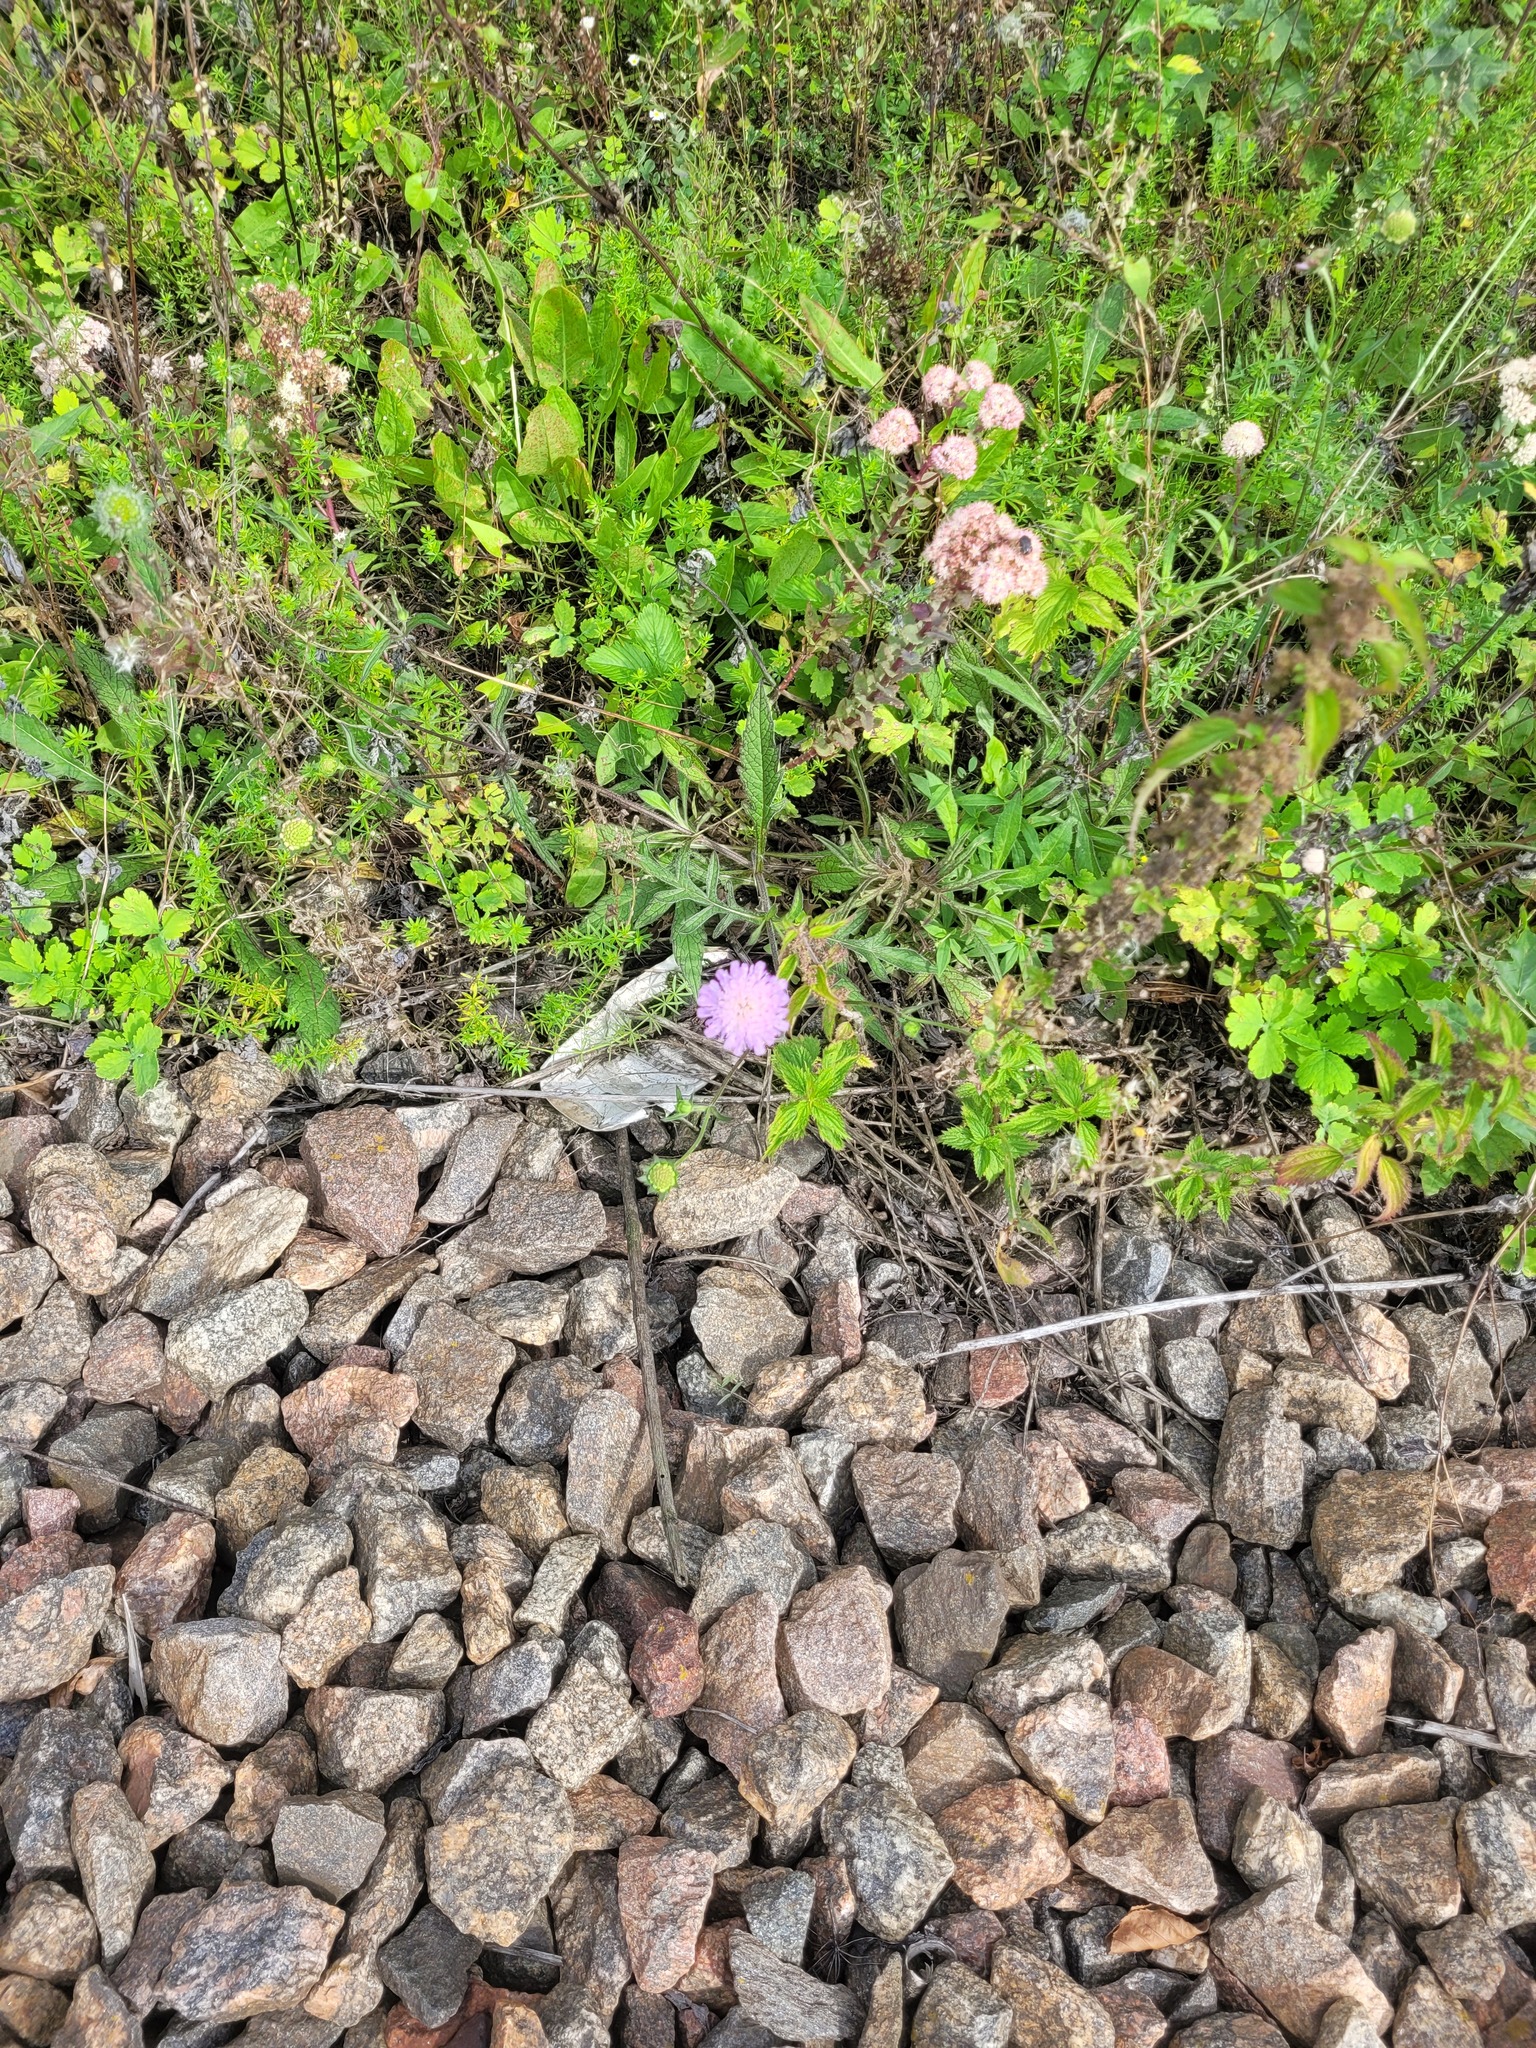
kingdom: Plantae
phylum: Tracheophyta
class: Magnoliopsida
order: Dipsacales
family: Caprifoliaceae
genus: Knautia
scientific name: Knautia arvensis
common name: Field scabiosa
